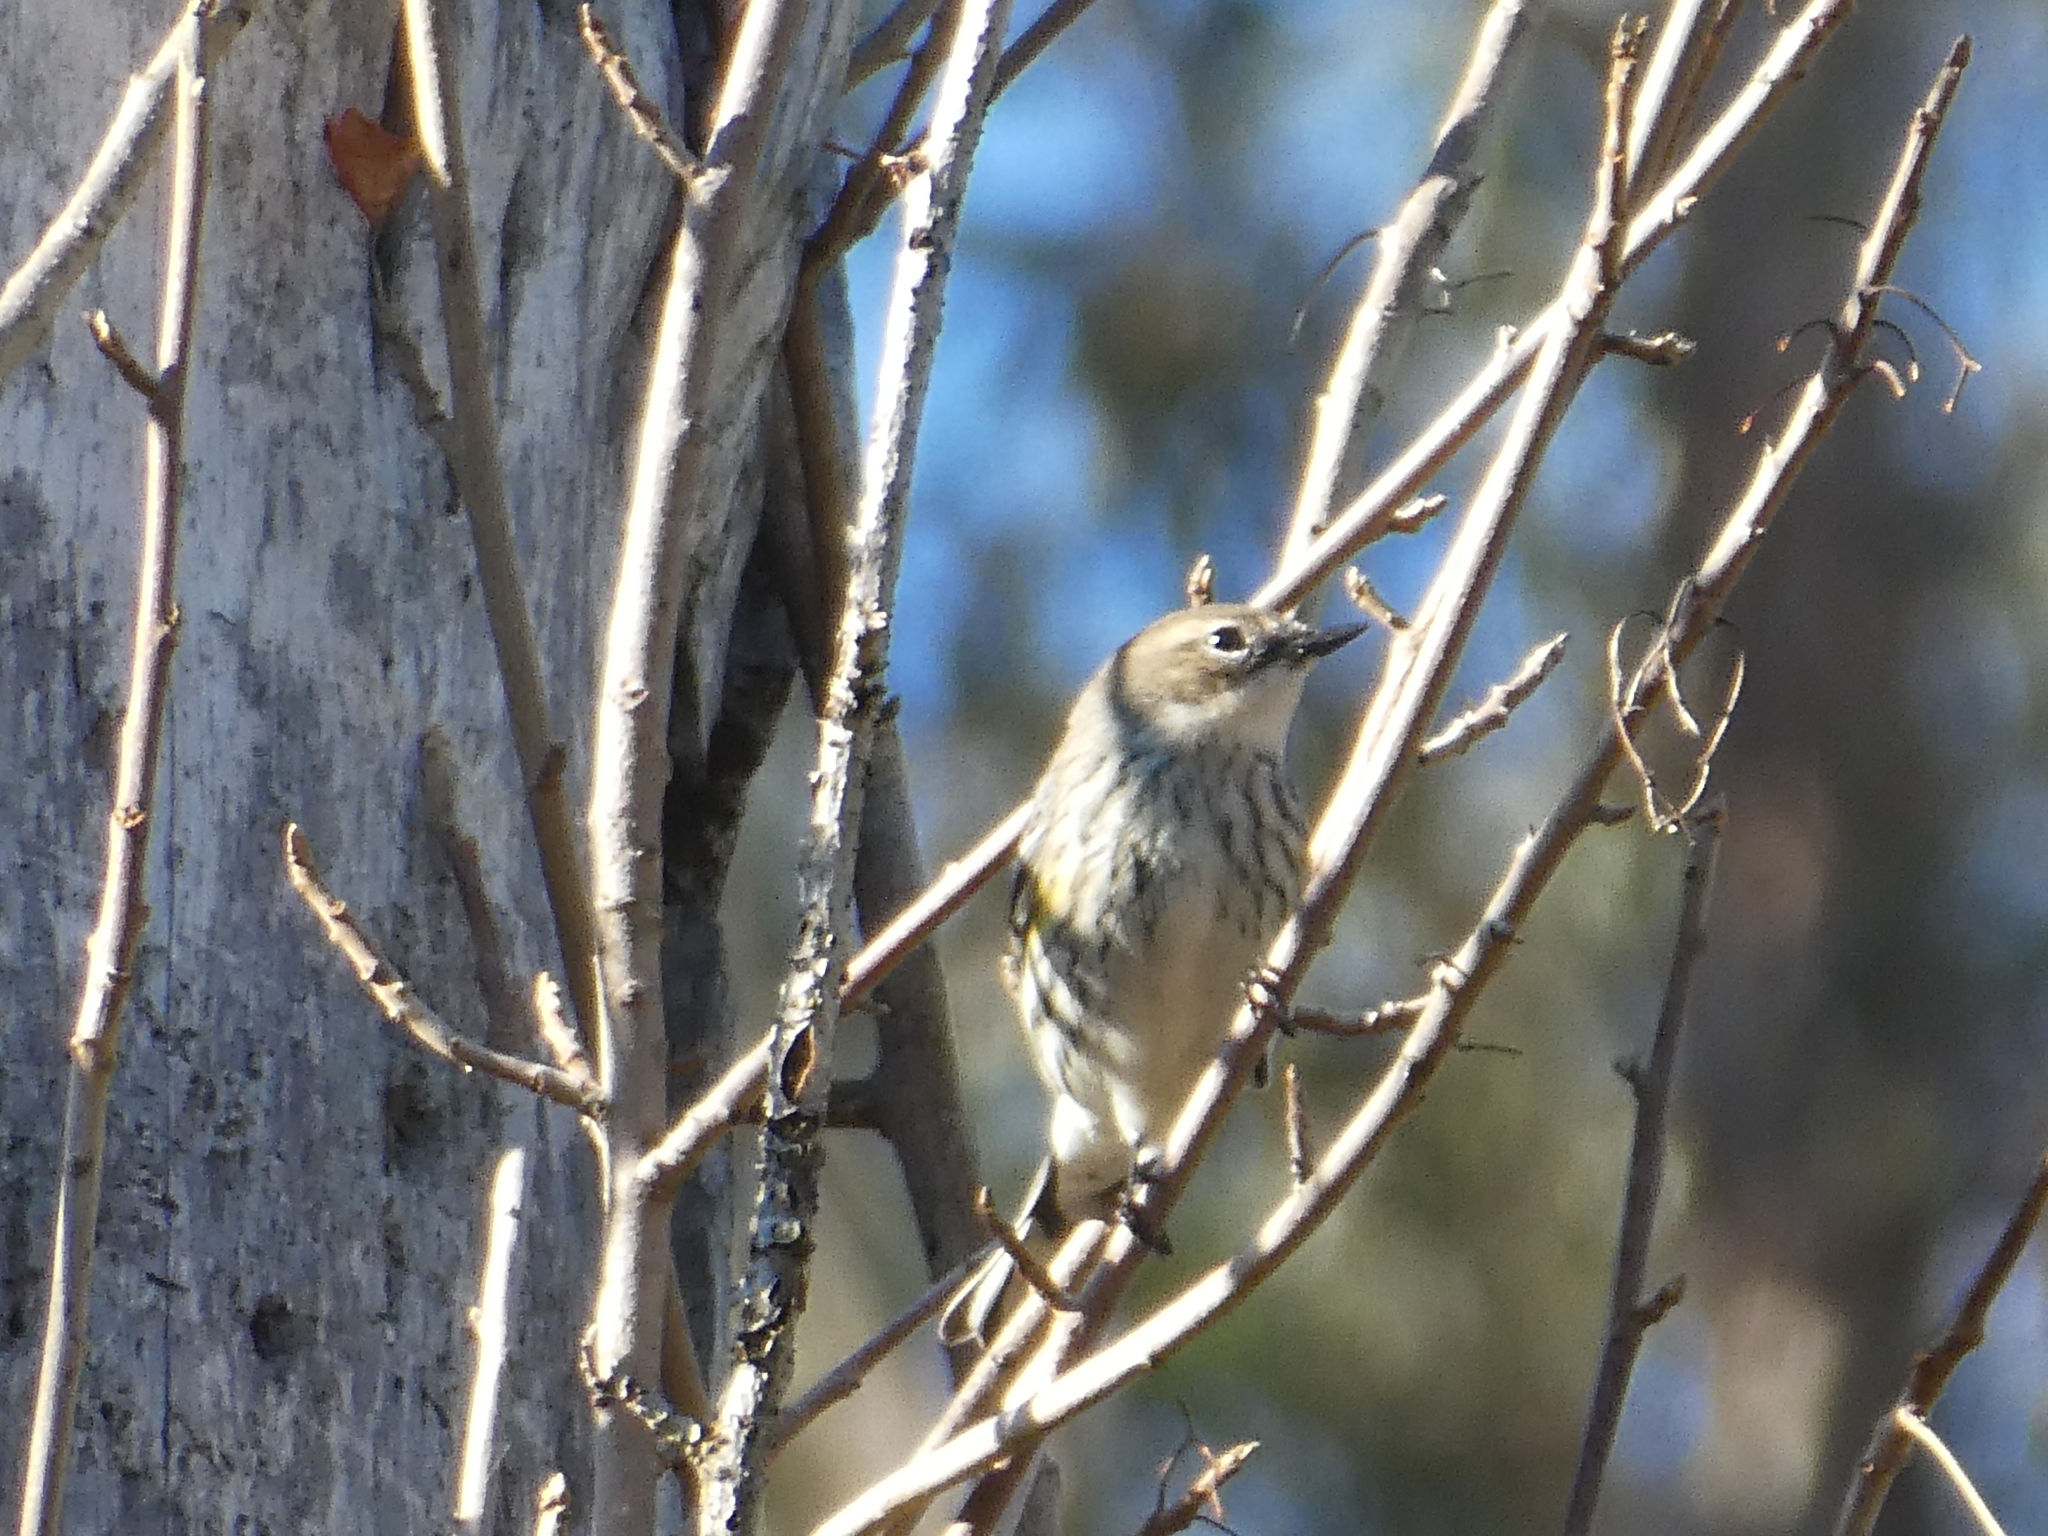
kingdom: Animalia
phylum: Chordata
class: Aves
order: Passeriformes
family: Parulidae
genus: Setophaga
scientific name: Setophaga coronata
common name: Myrtle warbler
